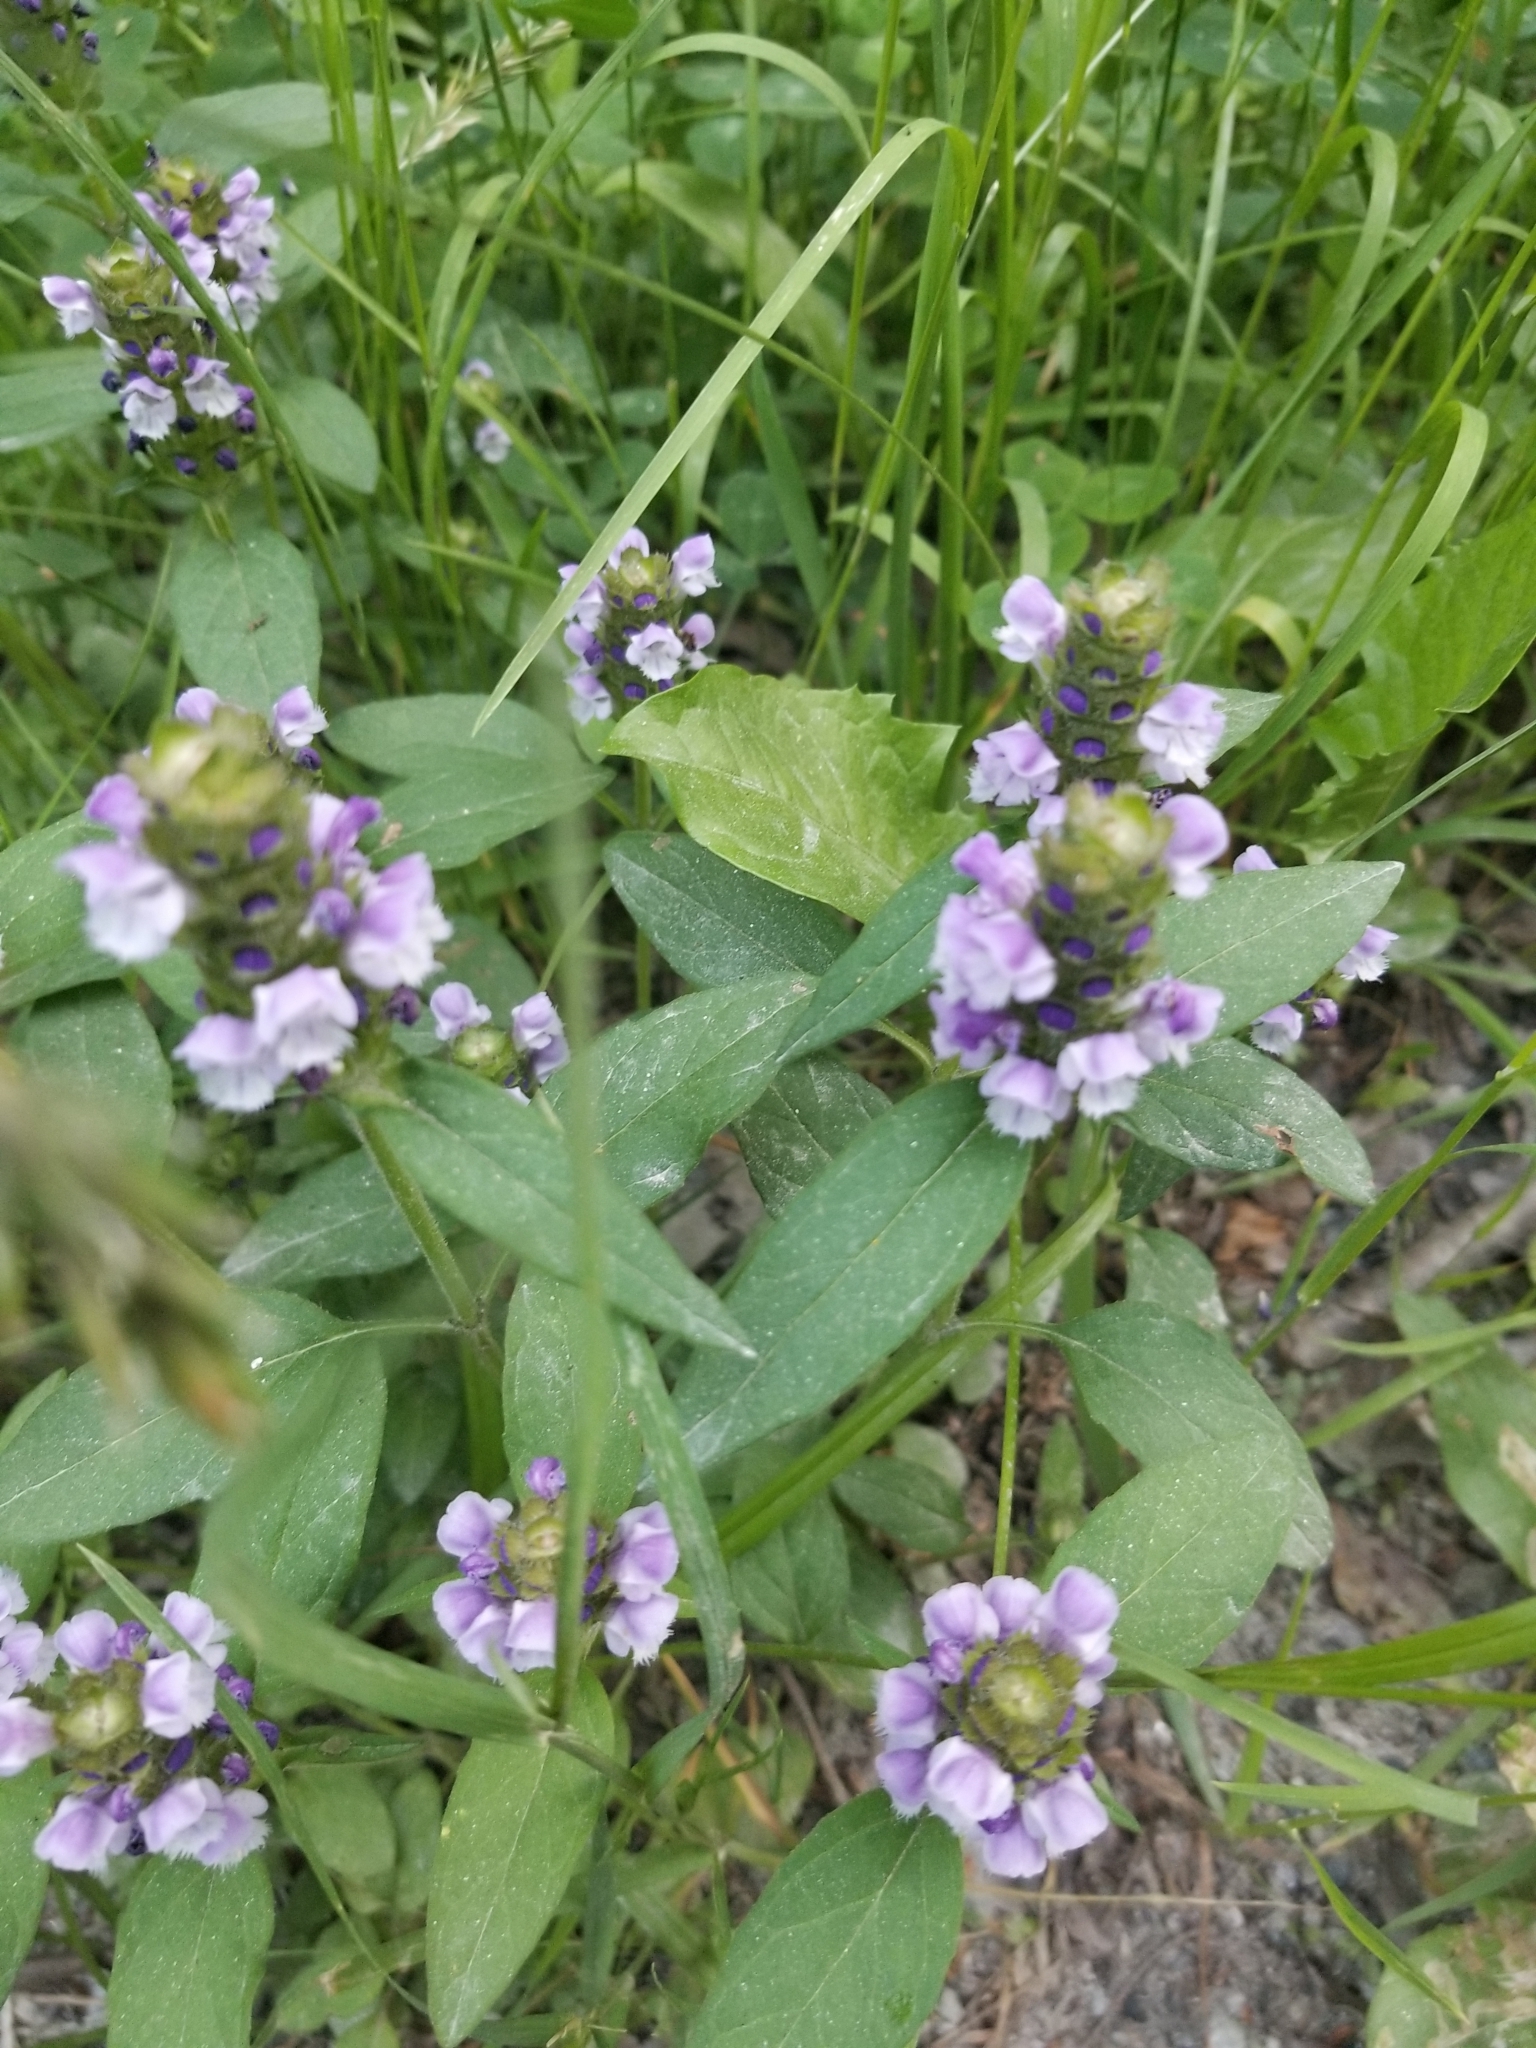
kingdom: Plantae
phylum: Tracheophyta
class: Magnoliopsida
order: Lamiales
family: Lamiaceae
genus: Prunella
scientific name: Prunella vulgaris
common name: Heal-all
